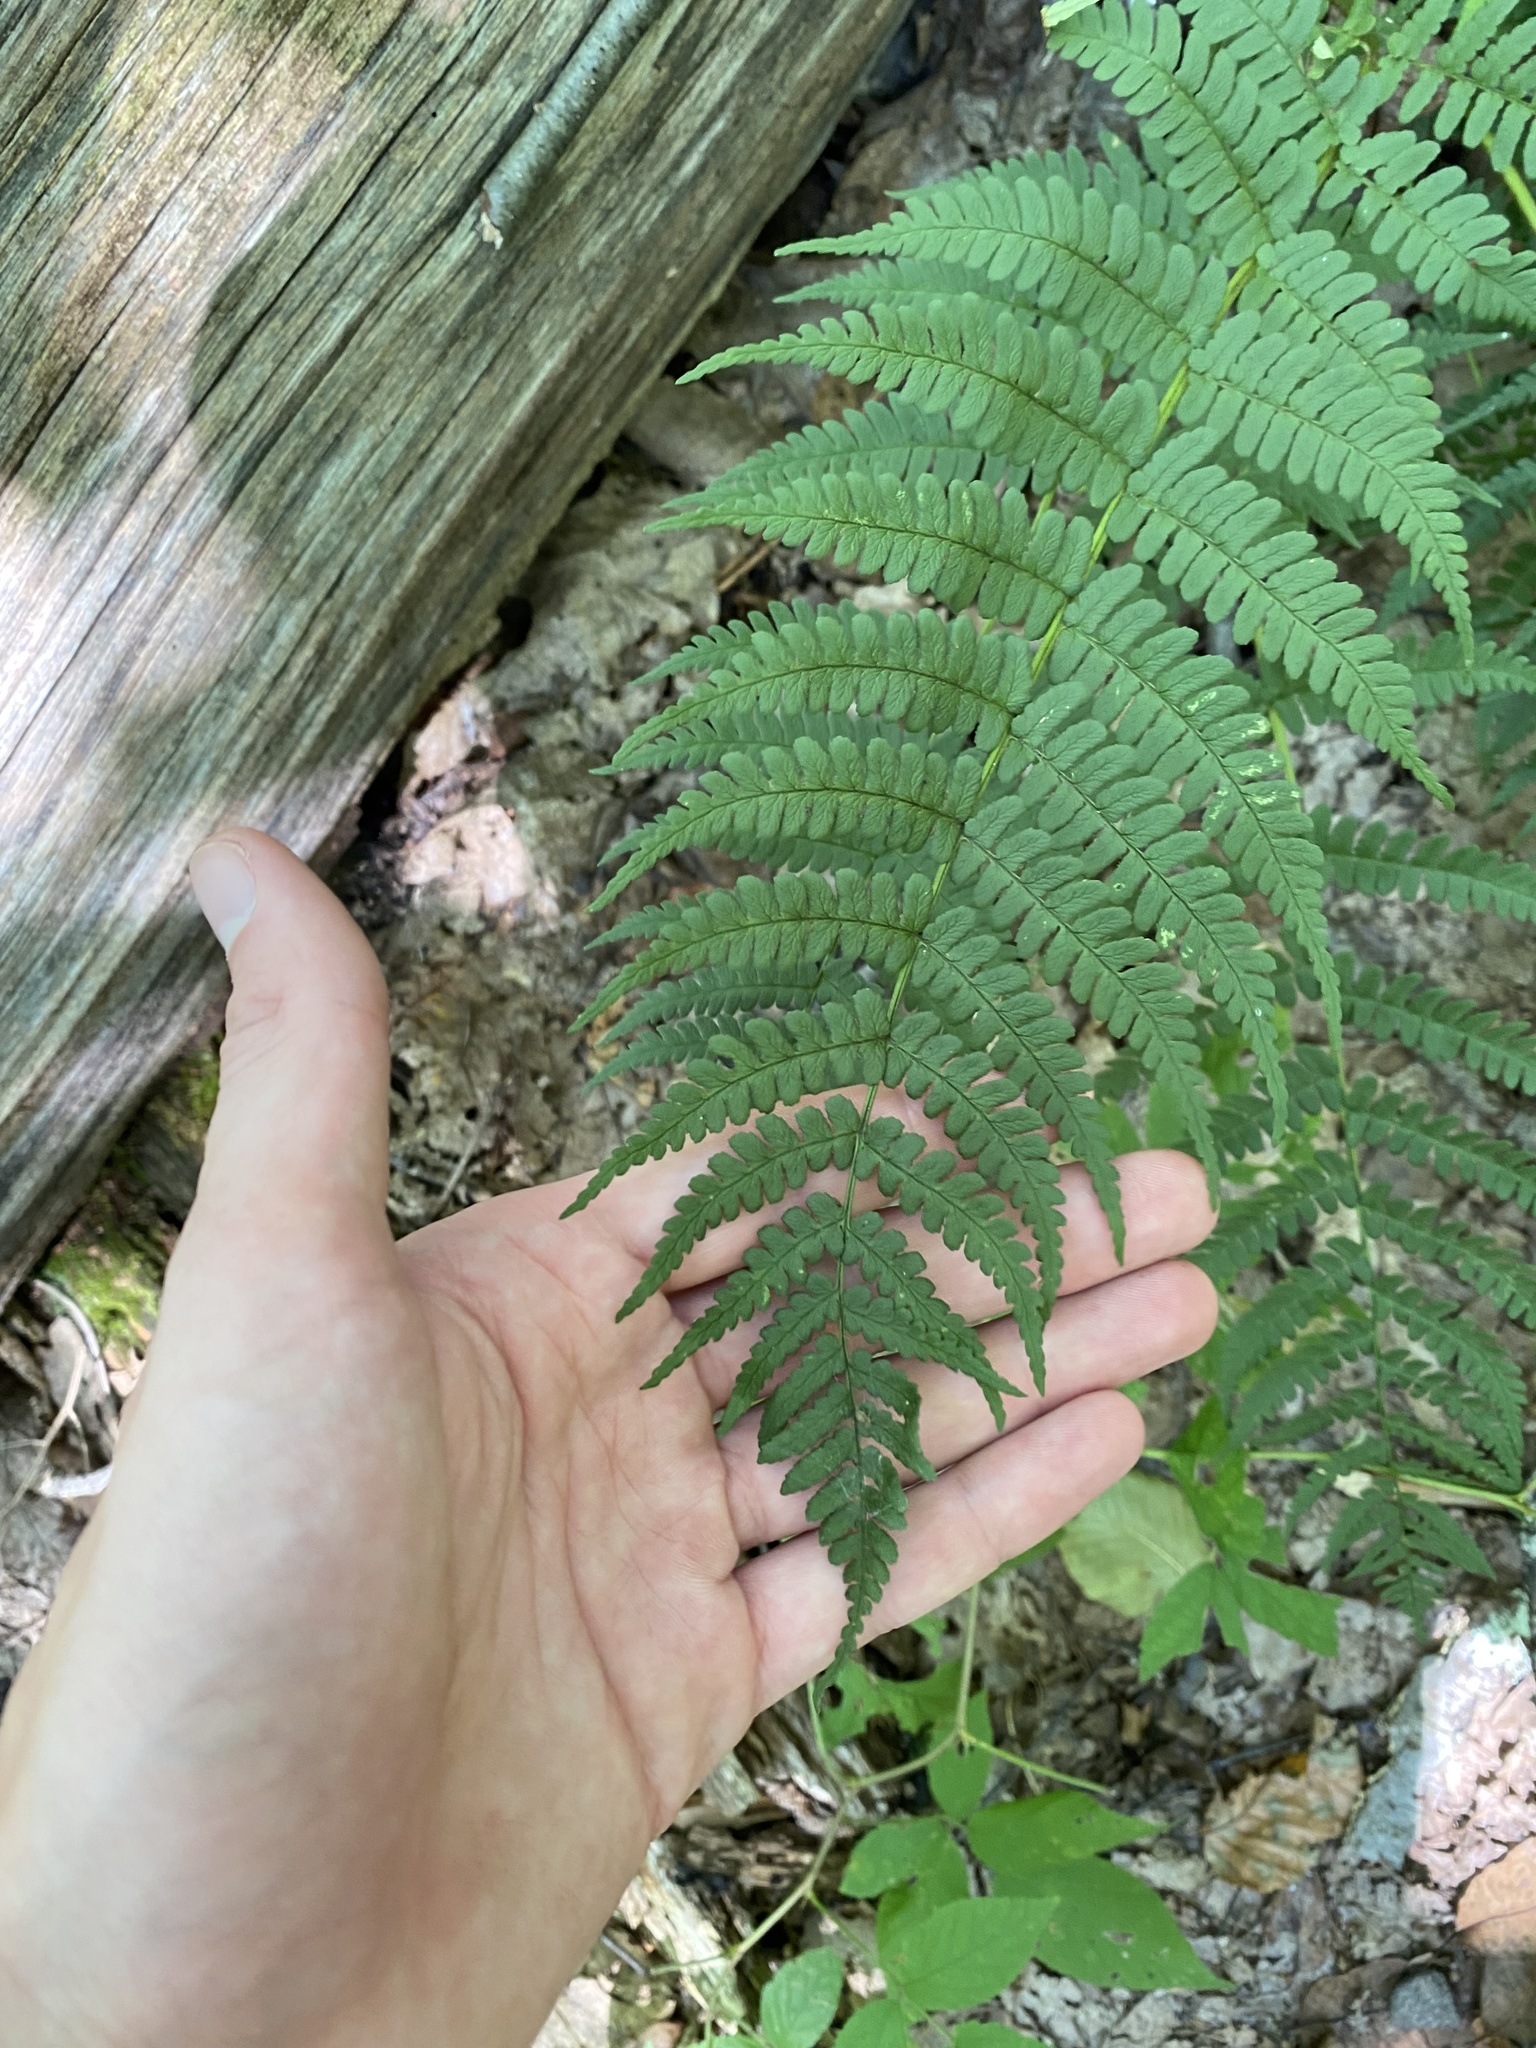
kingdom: Plantae
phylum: Tracheophyta
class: Polypodiopsida
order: Polypodiales
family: Dryopteridaceae
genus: Dryopteris
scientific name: Dryopteris marginalis
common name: Marginal wood fern
